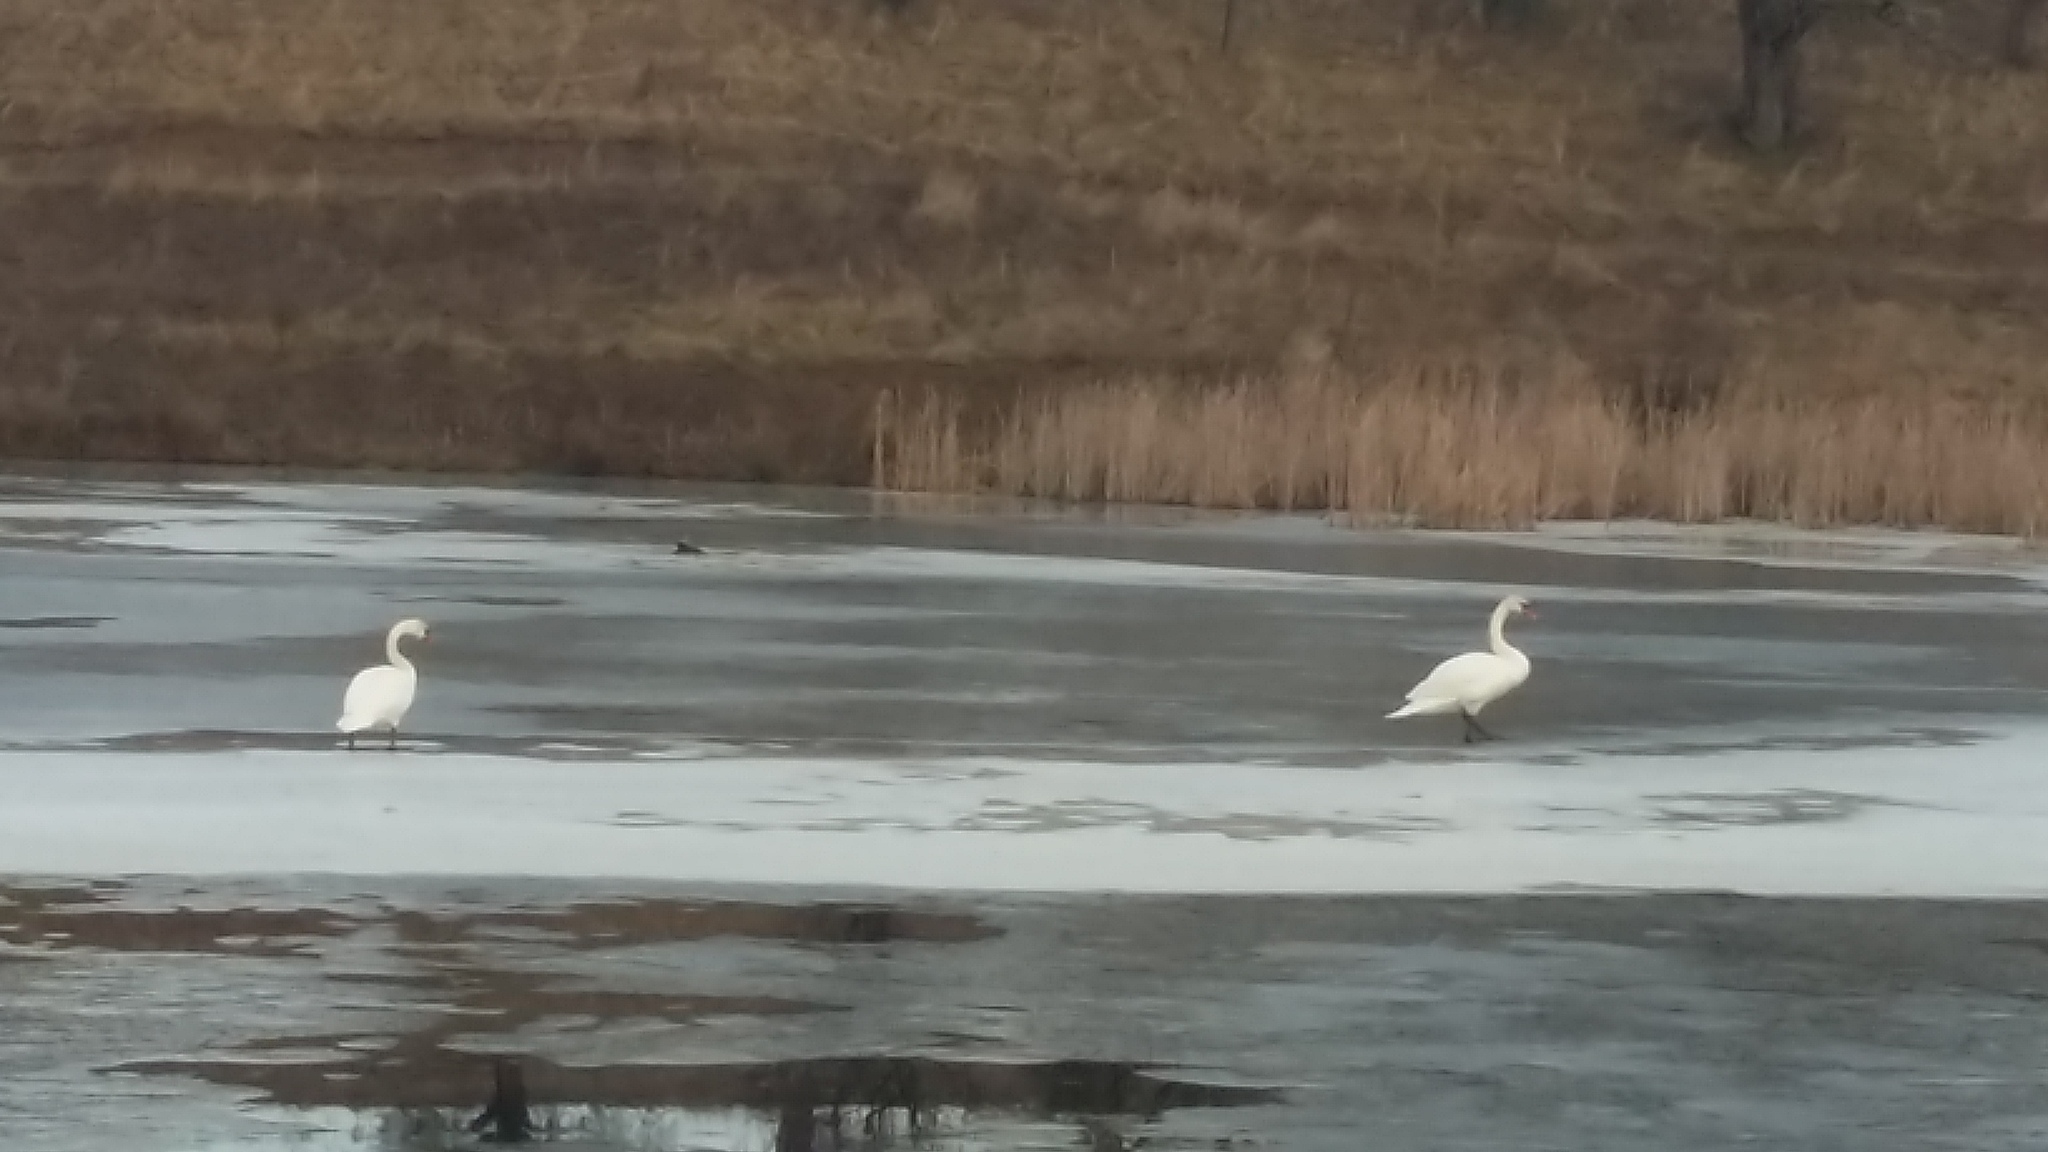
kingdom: Animalia
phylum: Chordata
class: Aves
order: Anseriformes
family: Anatidae
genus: Cygnus
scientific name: Cygnus olor
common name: Mute swan
